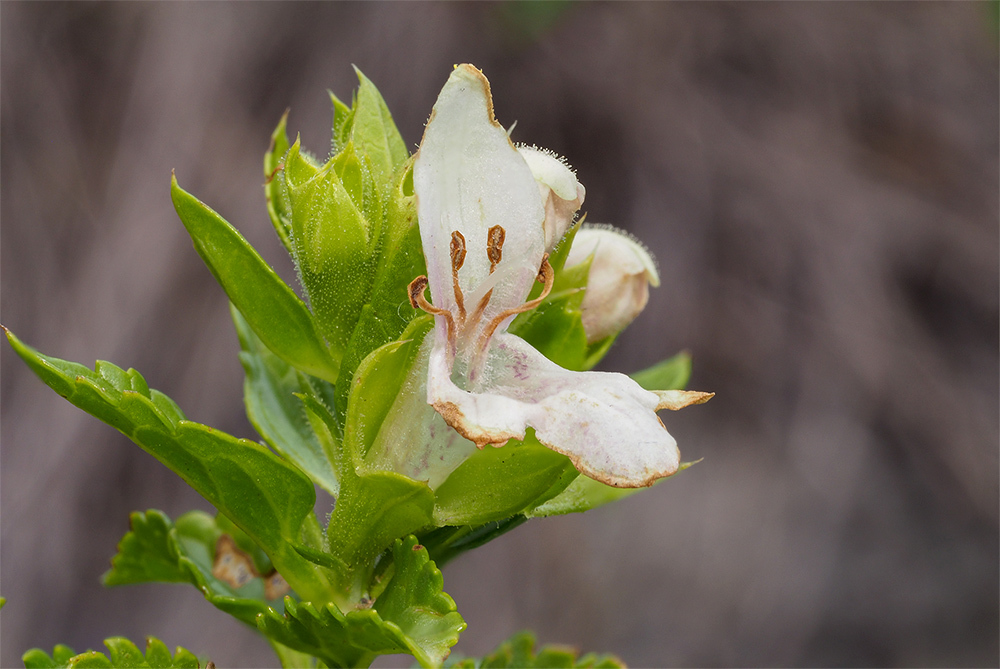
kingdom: Plantae
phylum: Tracheophyta
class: Magnoliopsida
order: Lamiales
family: Lamiaceae
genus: Prasium
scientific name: Prasium majus
